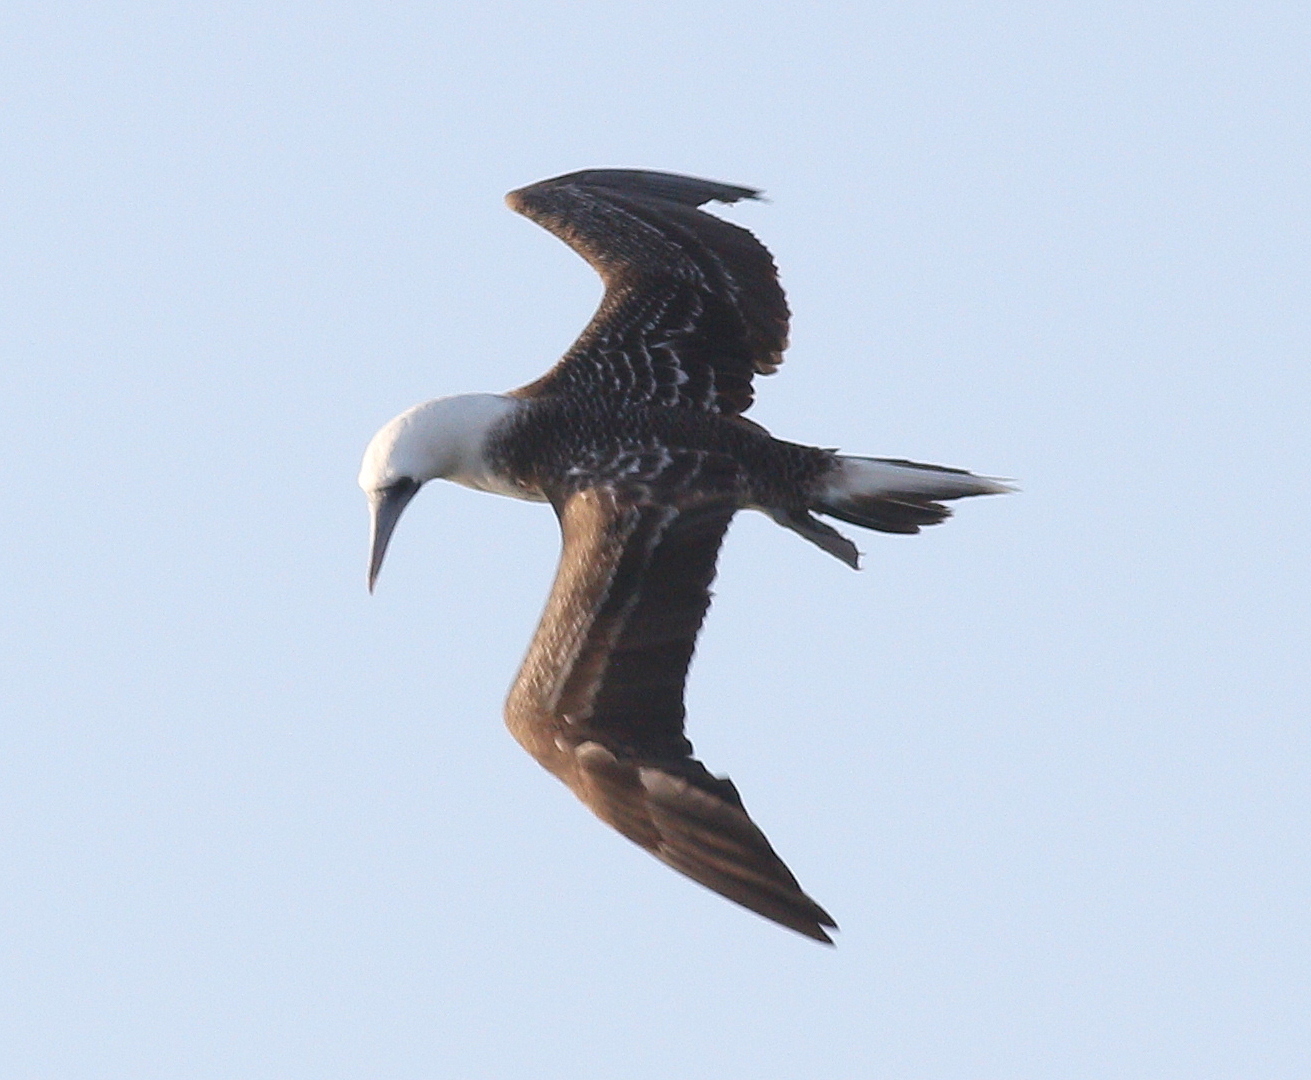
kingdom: Animalia
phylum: Chordata
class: Aves
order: Suliformes
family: Sulidae
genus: Sula
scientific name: Sula variegata
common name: Peruvian booby
